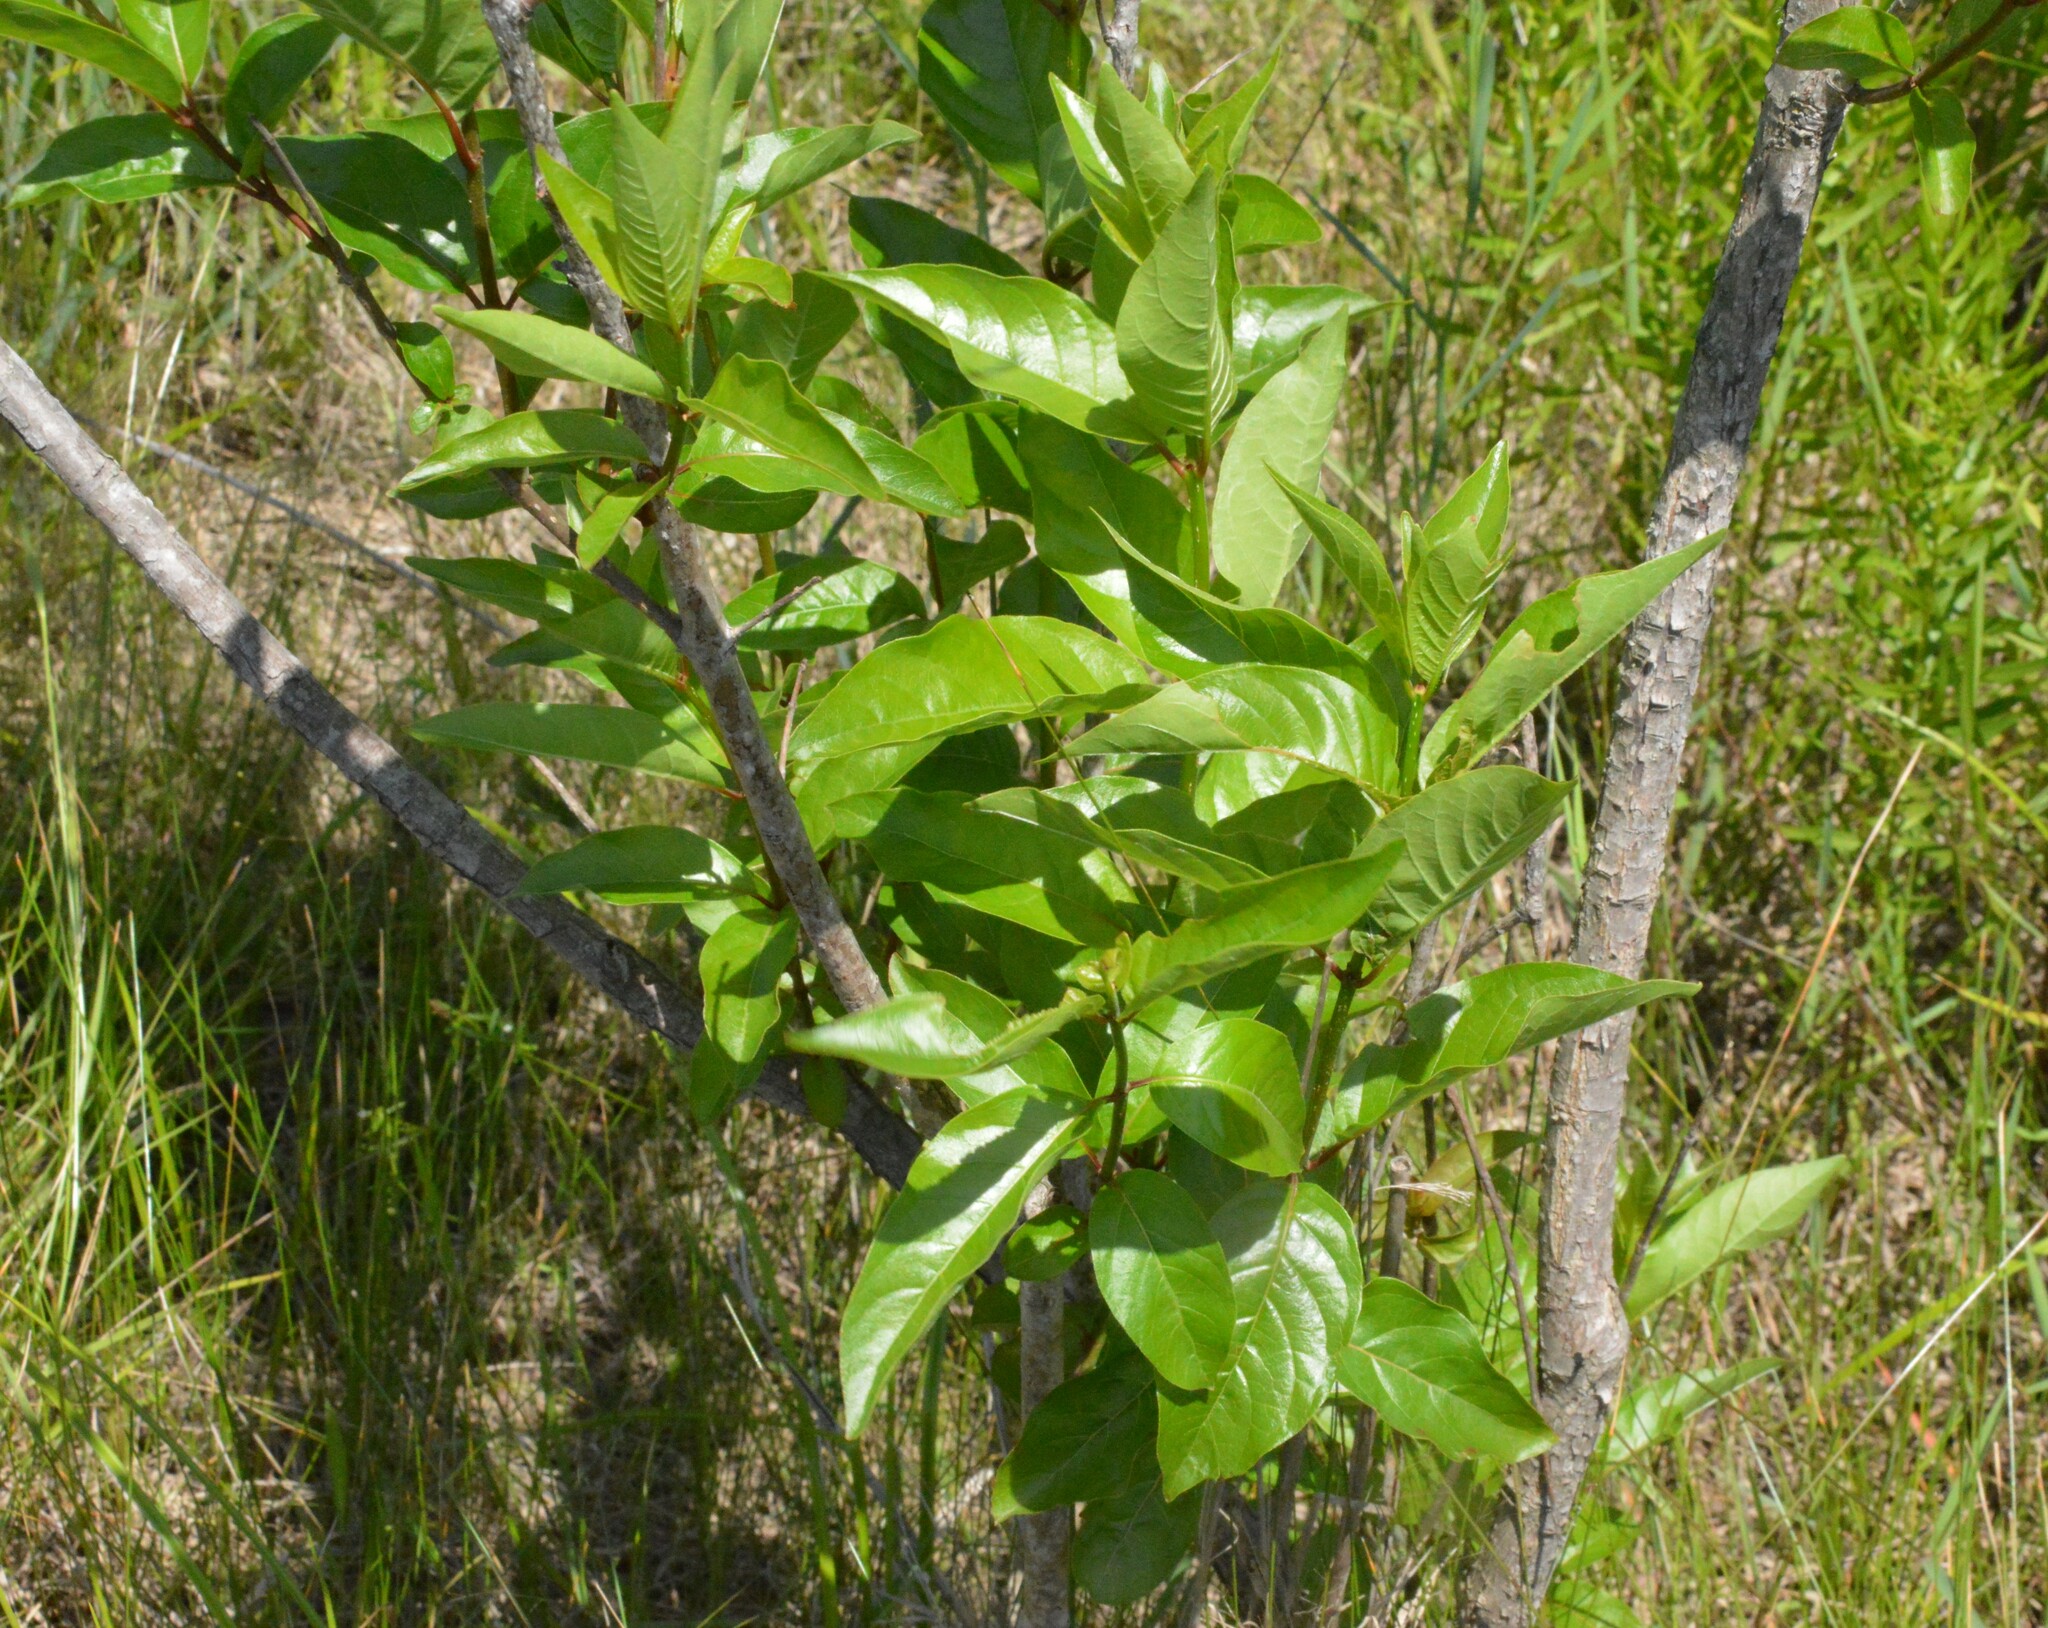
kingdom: Plantae
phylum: Tracheophyta
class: Magnoliopsida
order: Gentianales
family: Rubiaceae
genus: Cephalanthus
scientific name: Cephalanthus occidentalis
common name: Button-willow
